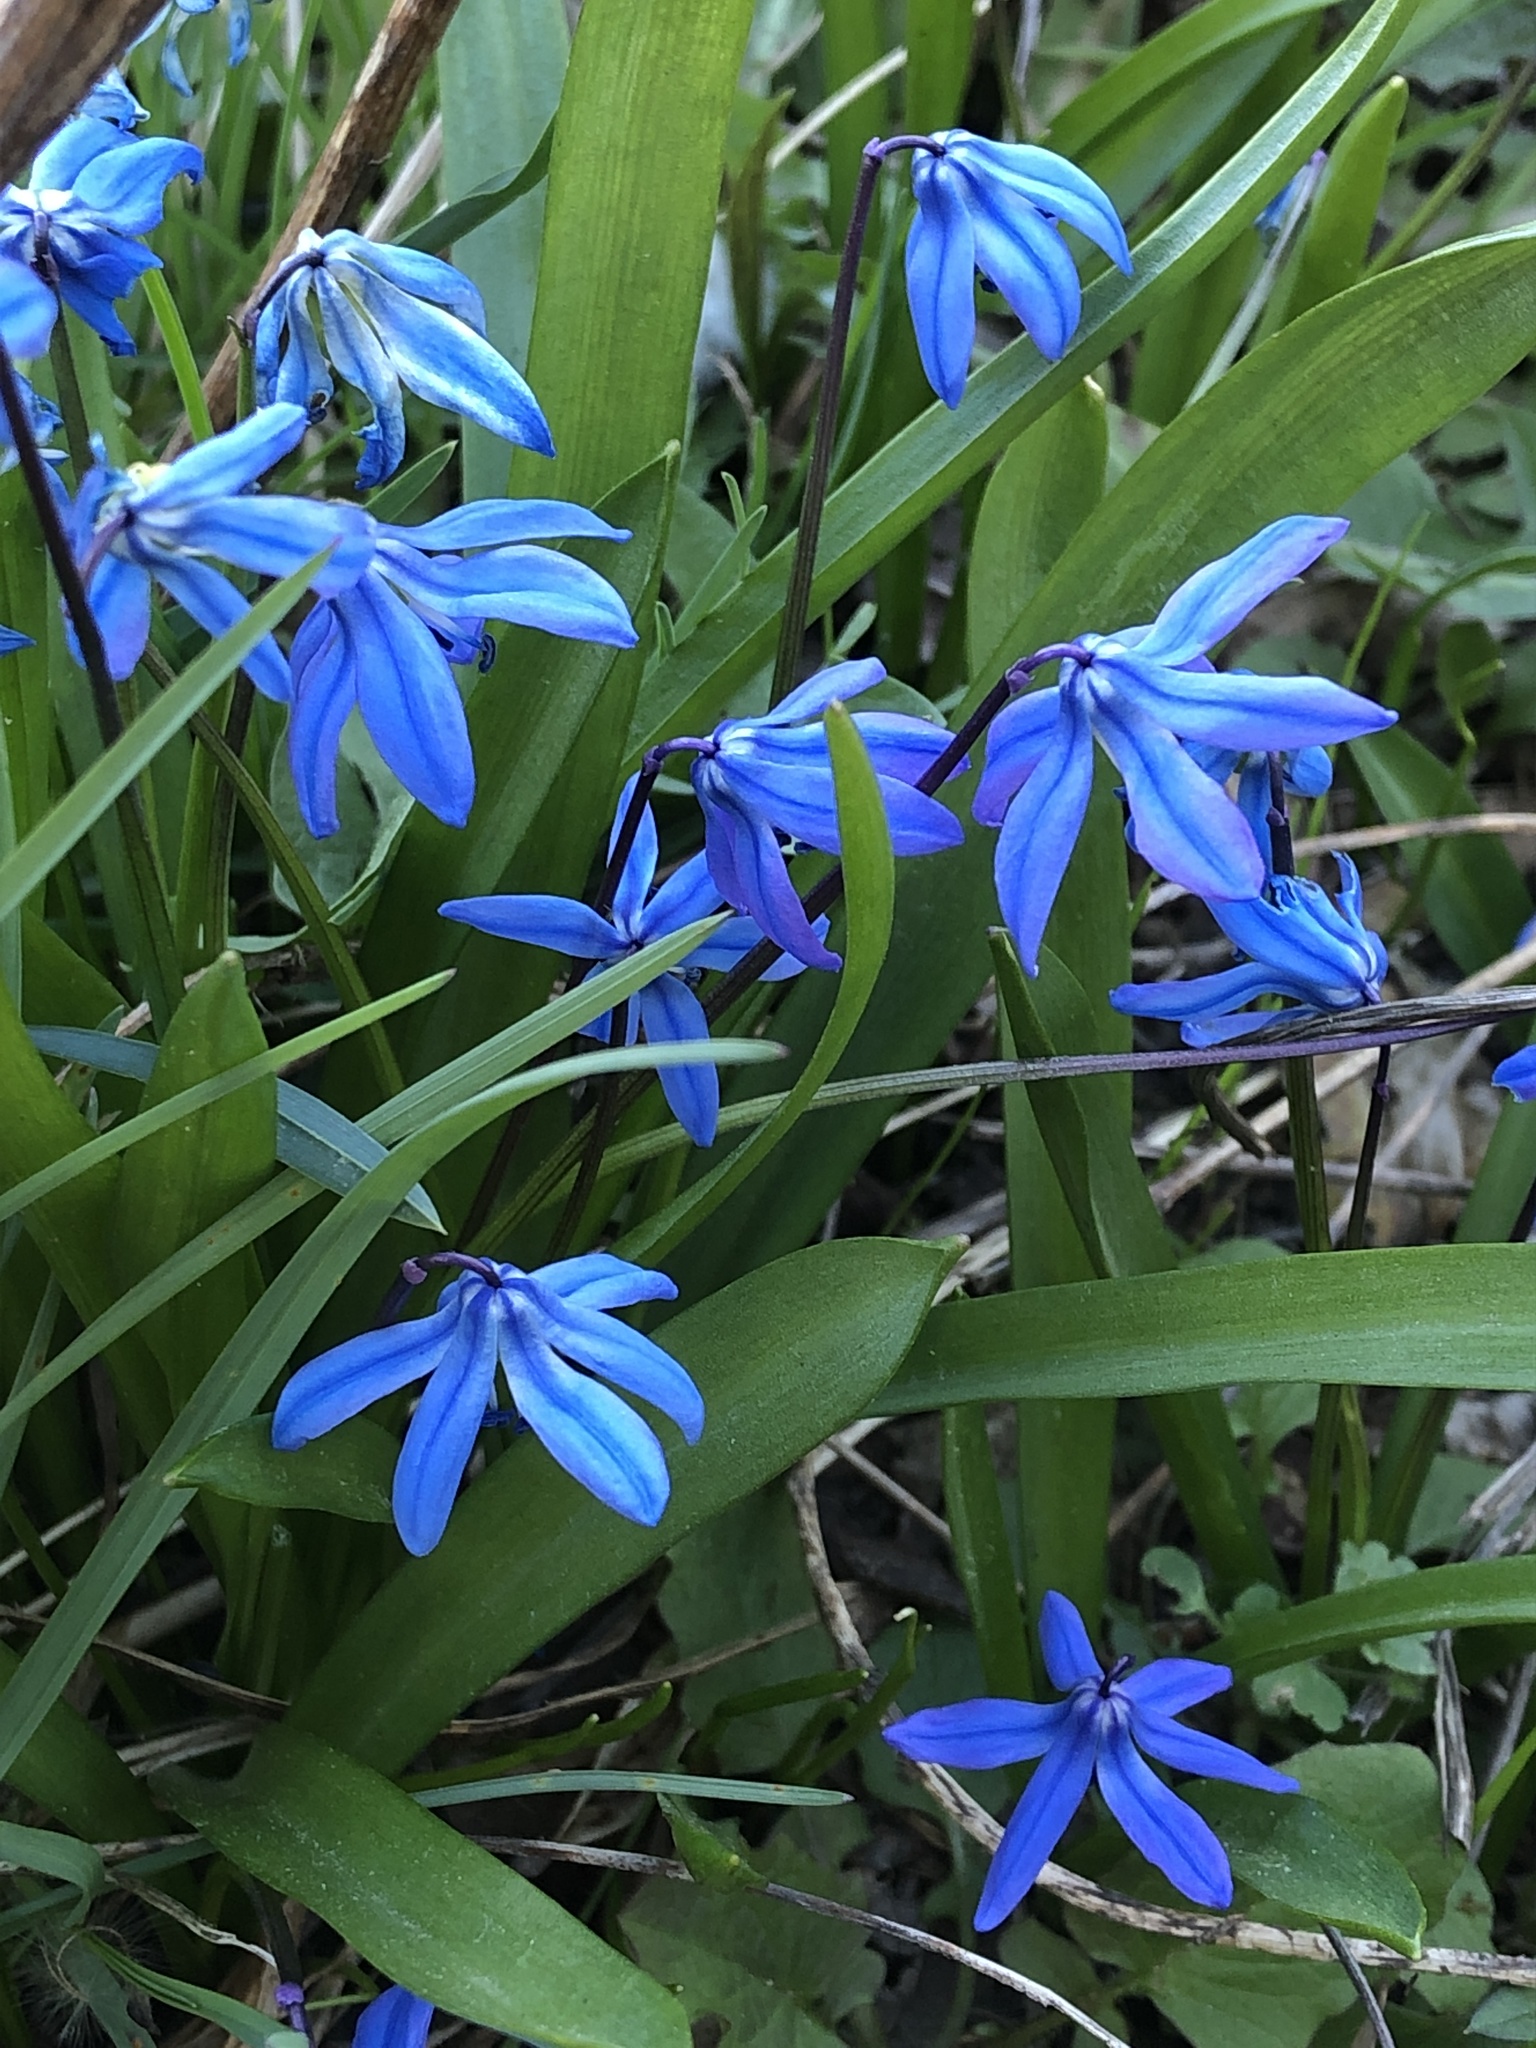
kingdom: Plantae
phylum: Tracheophyta
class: Liliopsida
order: Asparagales
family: Asparagaceae
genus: Scilla
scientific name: Scilla siberica
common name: Siberian squill
